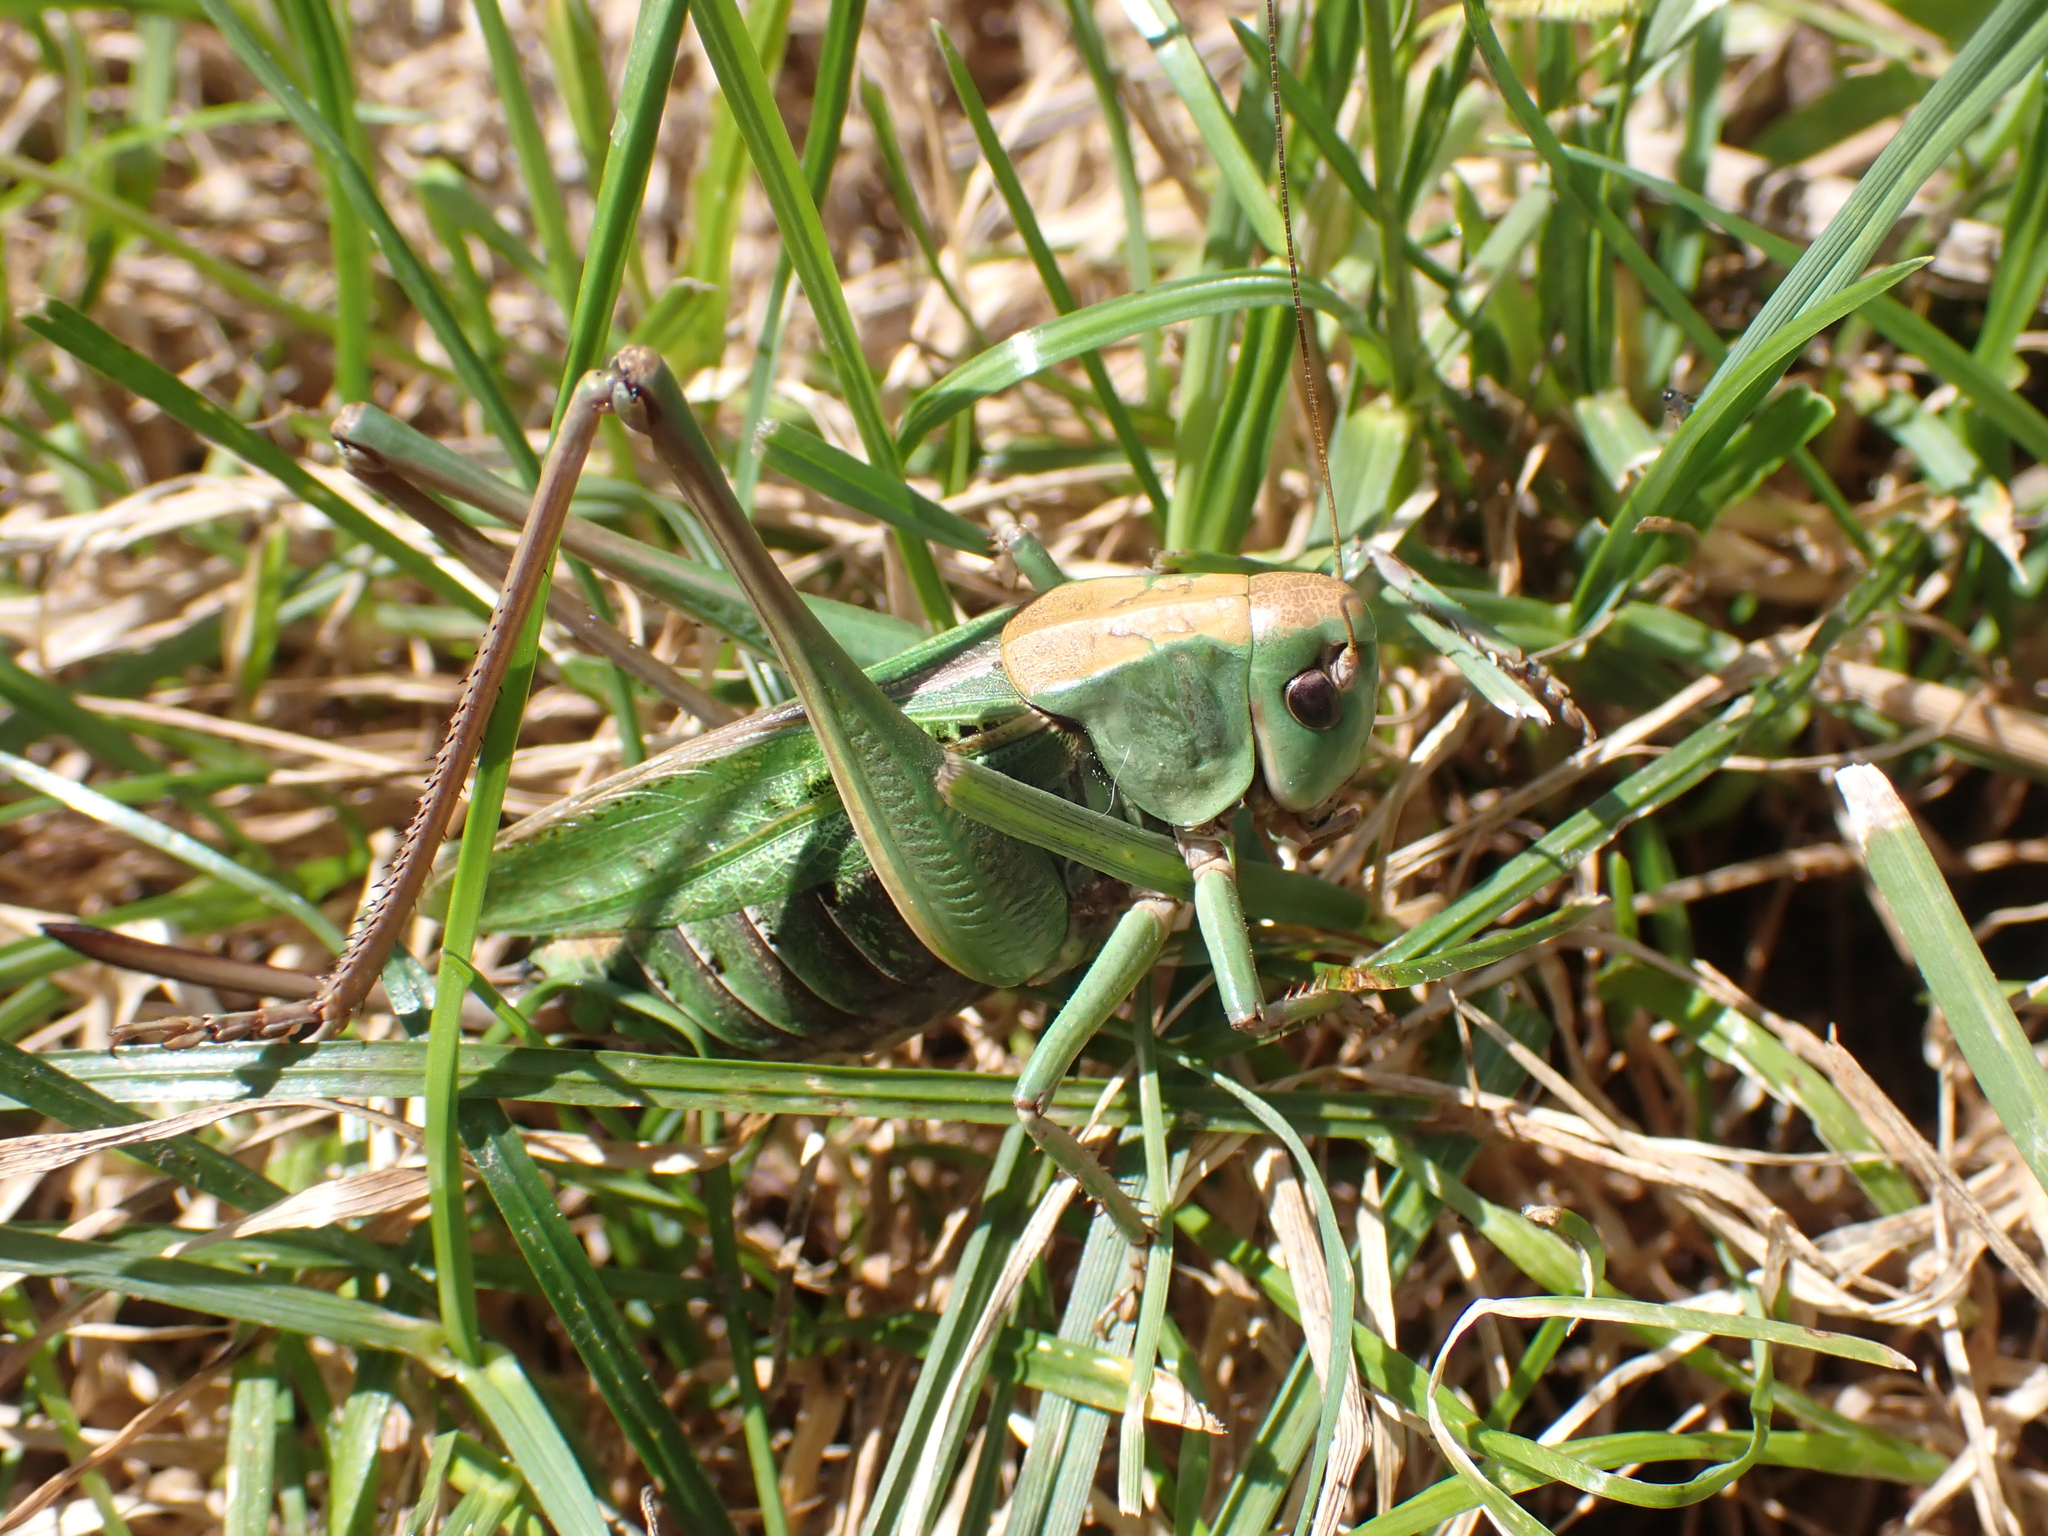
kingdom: Animalia
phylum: Arthropoda
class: Insecta
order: Orthoptera
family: Tettigoniidae
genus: Decticus
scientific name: Decticus verrucivorus
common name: Wart-biter
